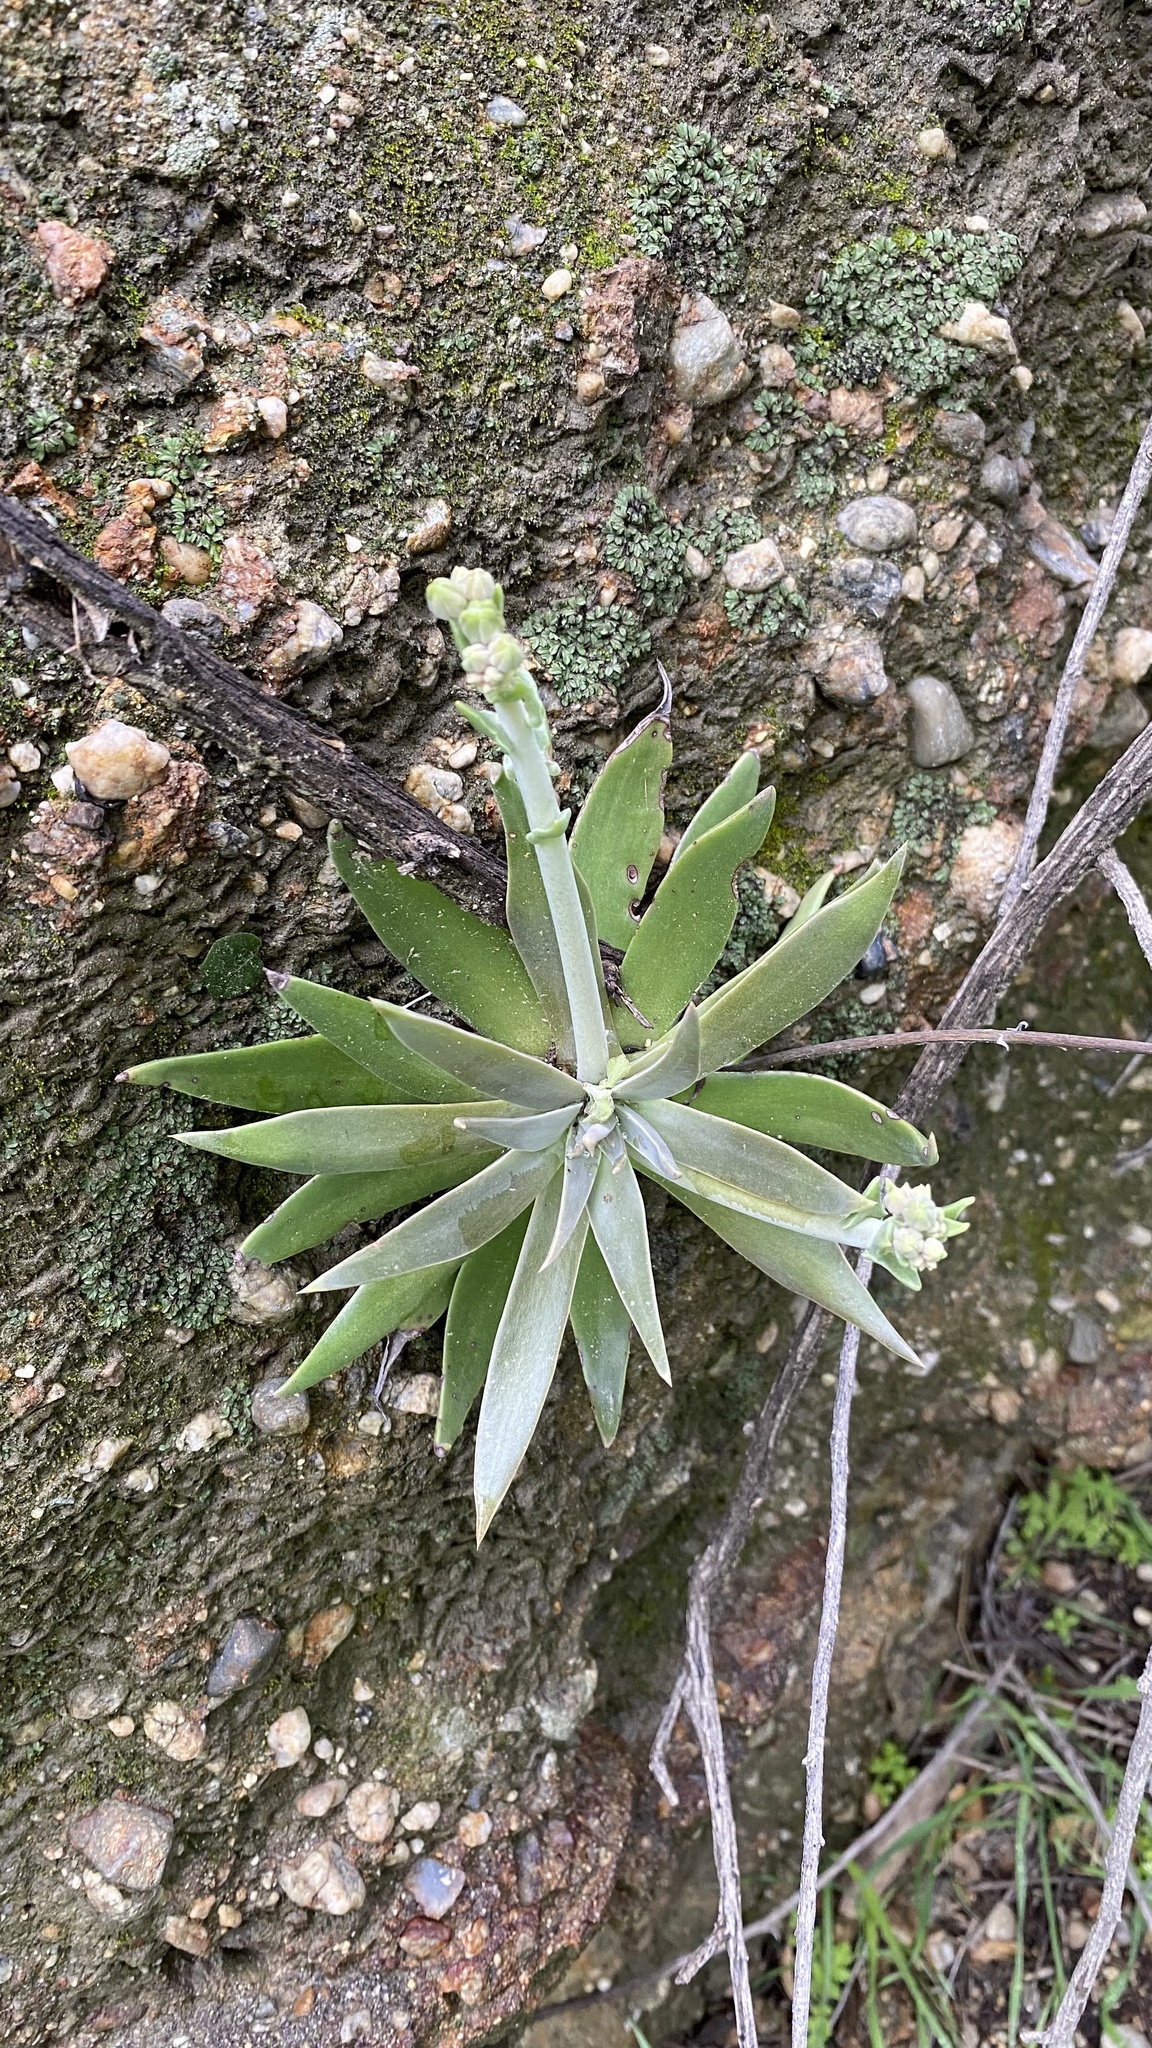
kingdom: Plantae
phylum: Tracheophyta
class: Magnoliopsida
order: Saxifragales
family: Crassulaceae
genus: Dudleya
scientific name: Dudleya lanceolata
